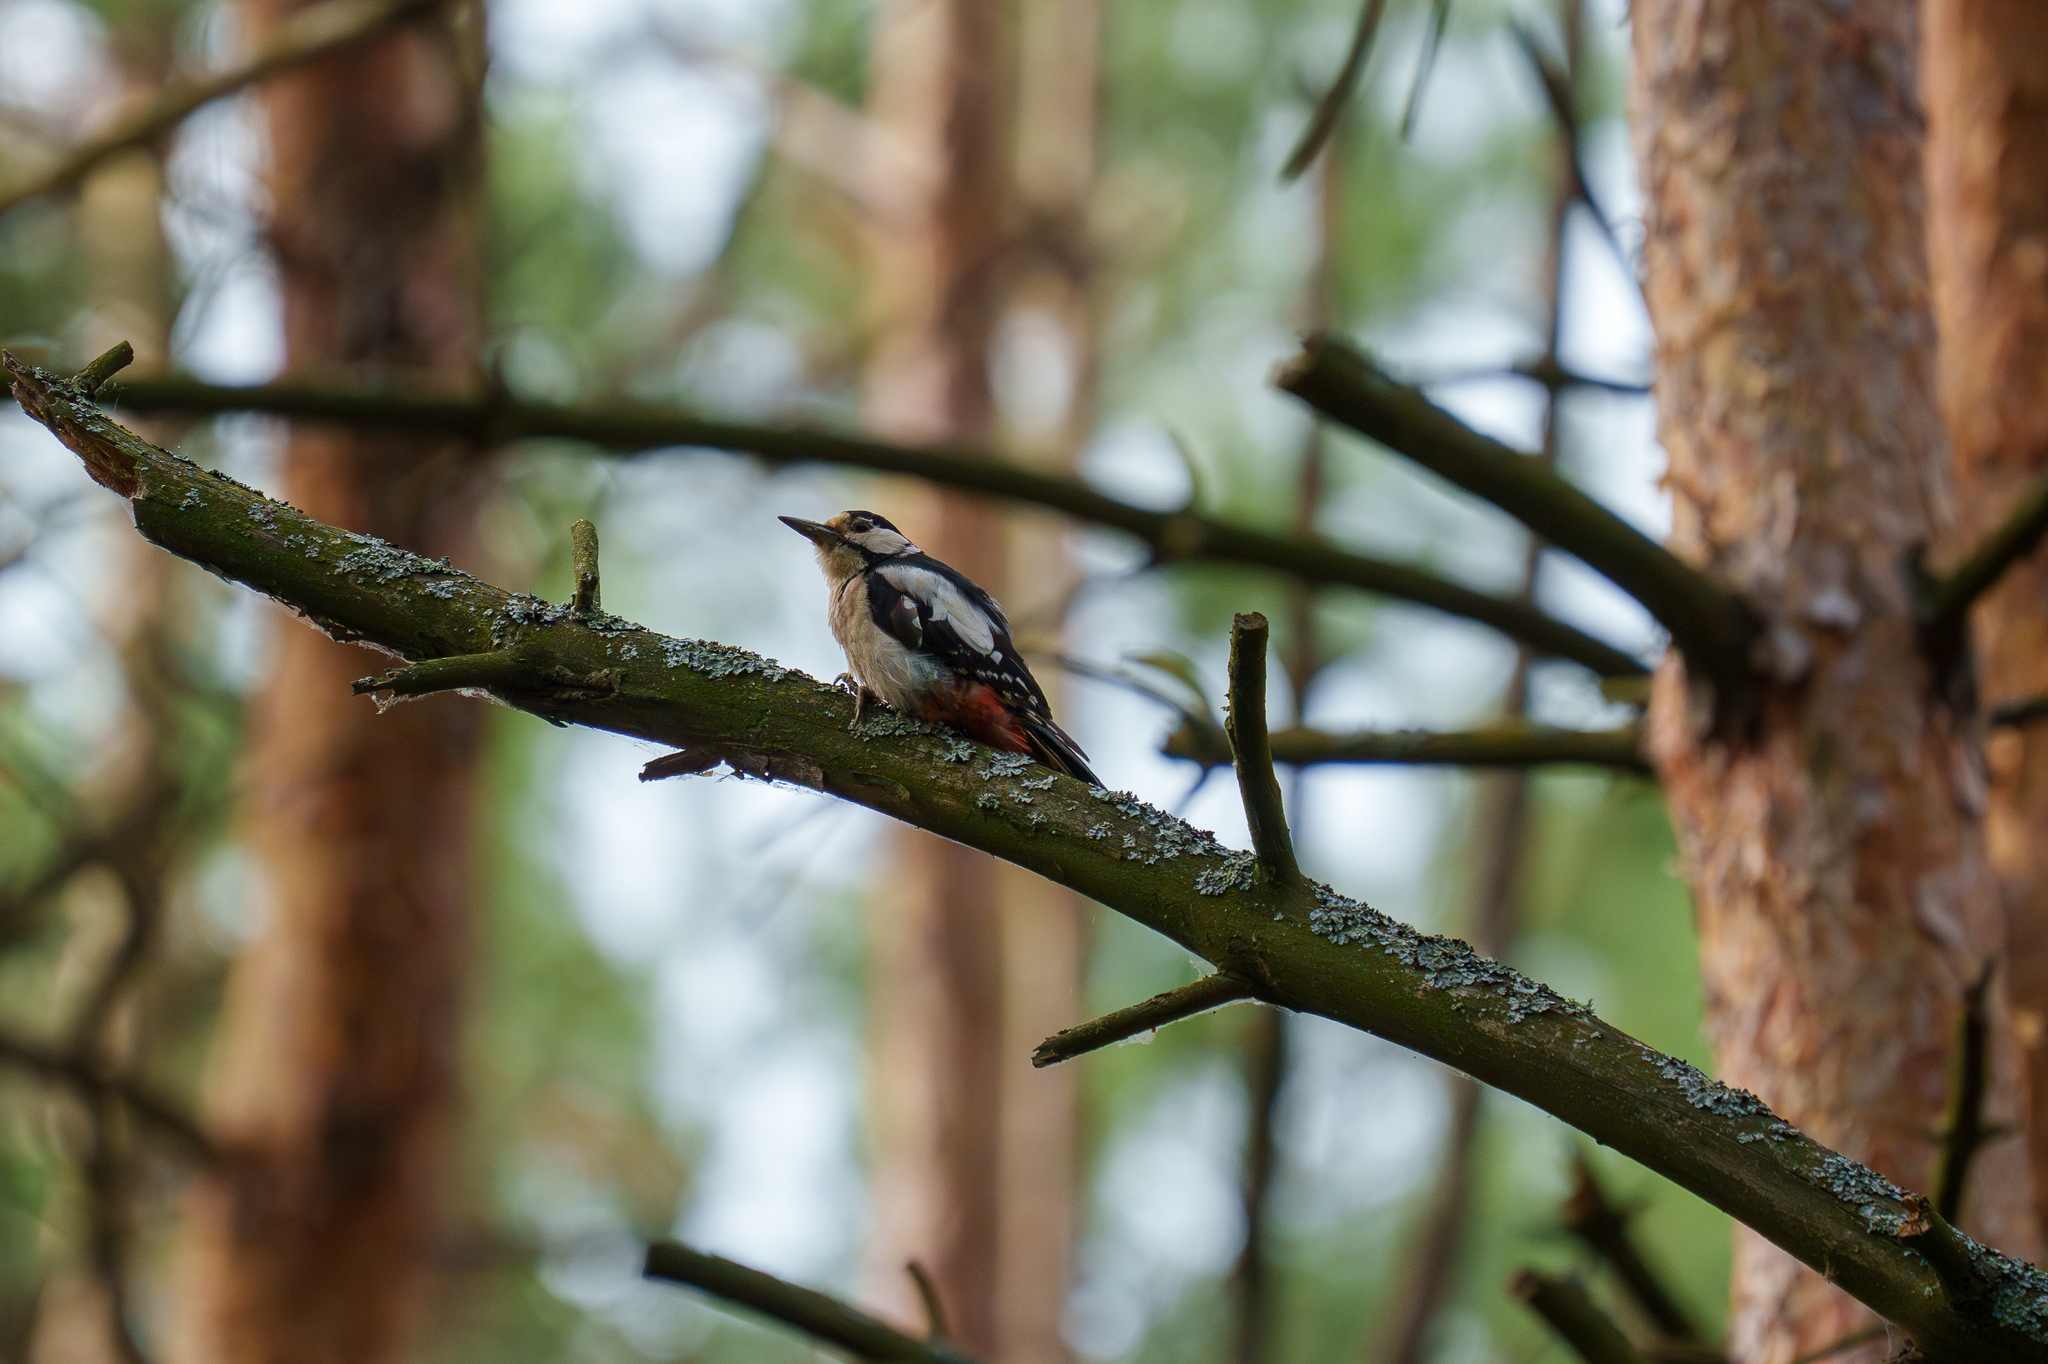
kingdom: Animalia
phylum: Chordata
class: Aves
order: Piciformes
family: Picidae
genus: Dendrocopos
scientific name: Dendrocopos major
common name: Great spotted woodpecker
